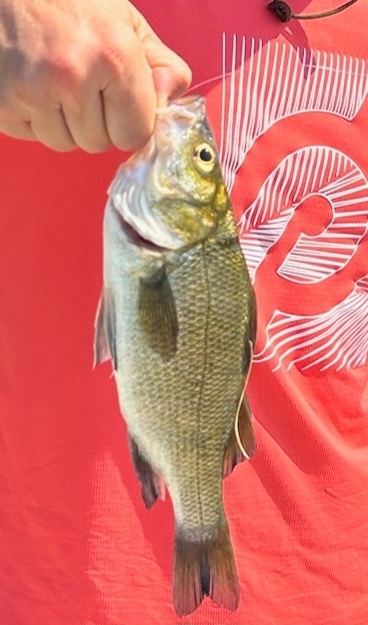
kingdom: Animalia
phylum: Chordata
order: Perciformes
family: Moronidae
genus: Morone
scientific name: Morone americana
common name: White perch
